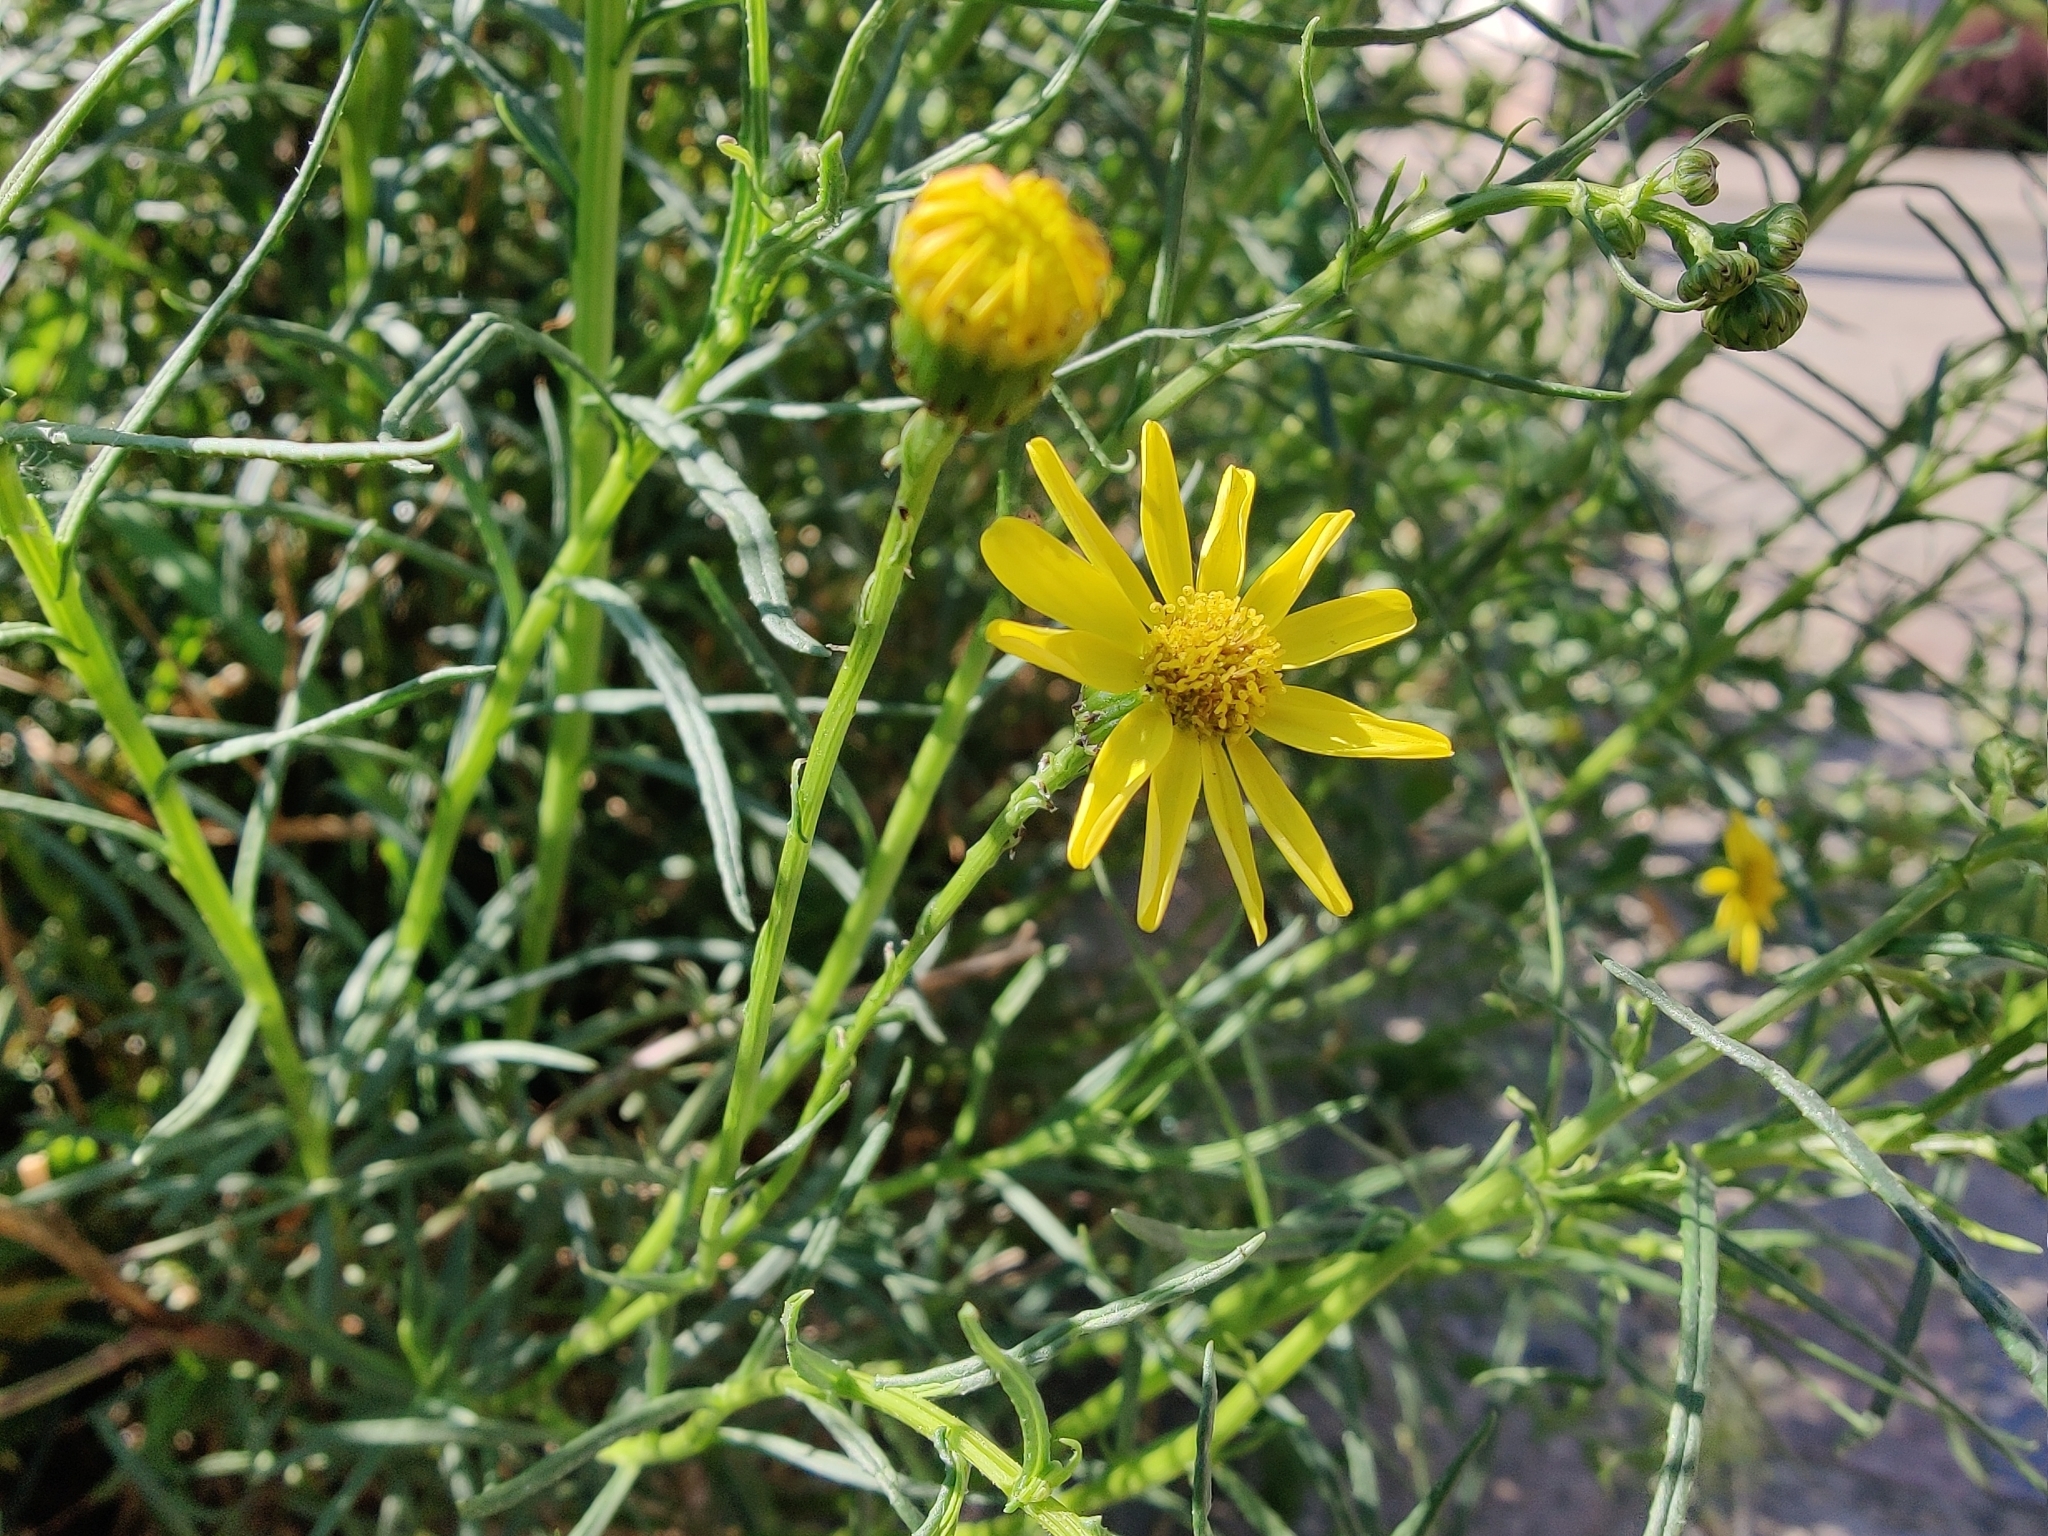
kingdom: Plantae
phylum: Tracheophyta
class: Magnoliopsida
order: Asterales
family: Asteraceae
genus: Senecio
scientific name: Senecio inaequidens
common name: Narrow-leaved ragwort
